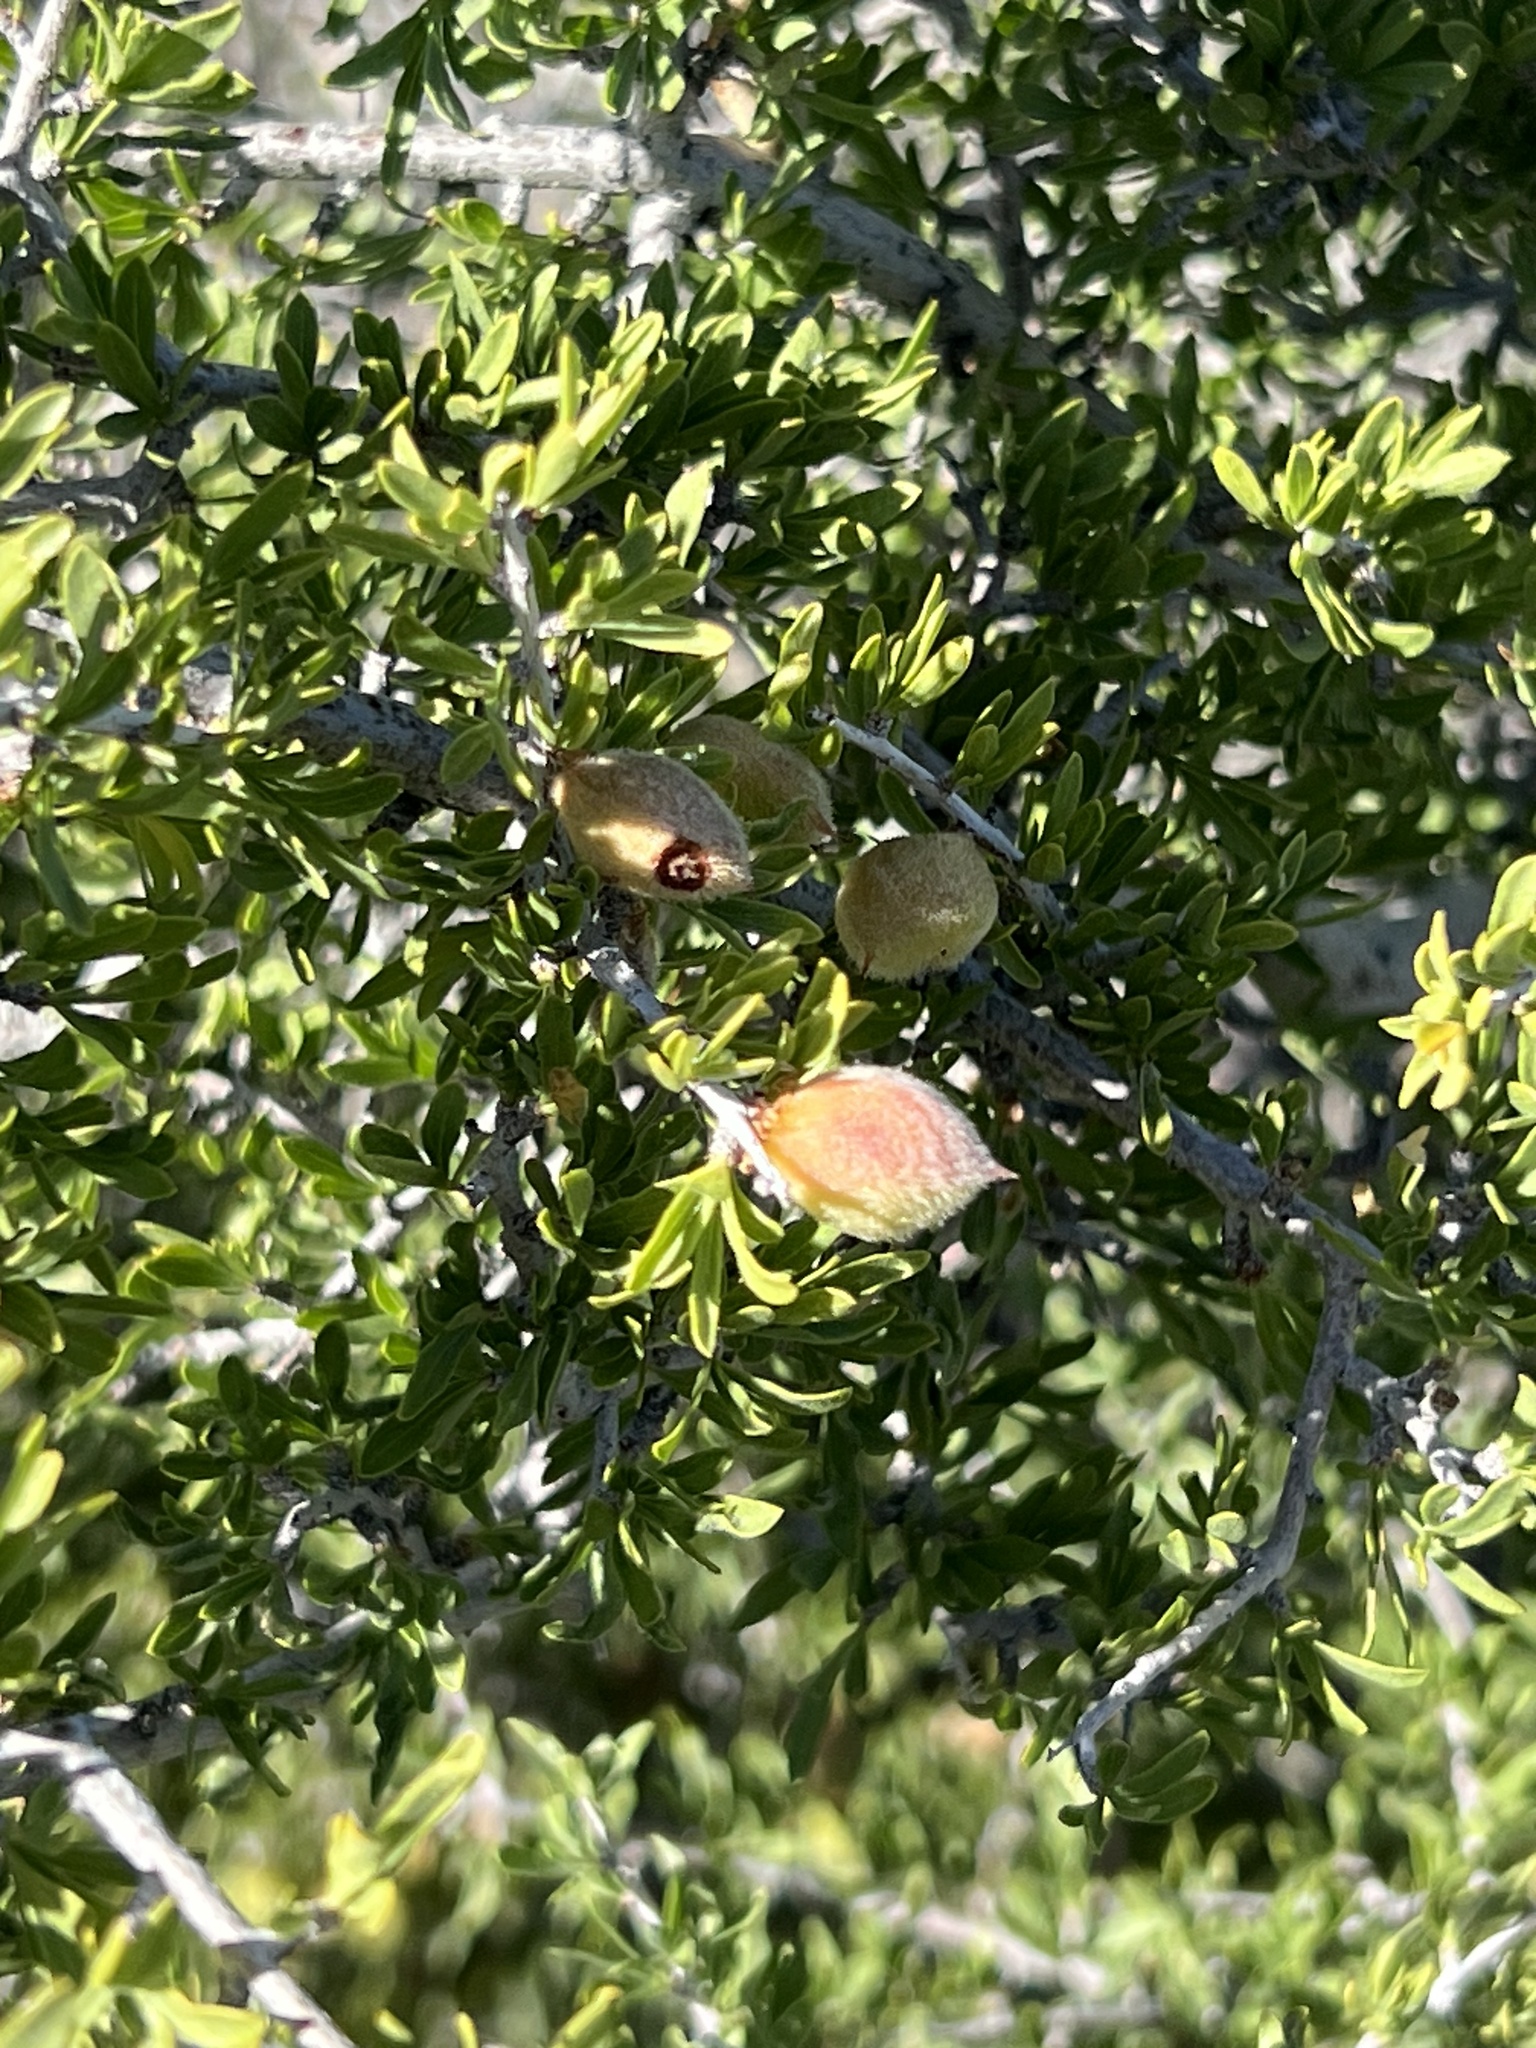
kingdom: Plantae
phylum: Tracheophyta
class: Magnoliopsida
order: Rosales
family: Rosaceae
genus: Prunus
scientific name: Prunus fasciculata
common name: Desert almond
